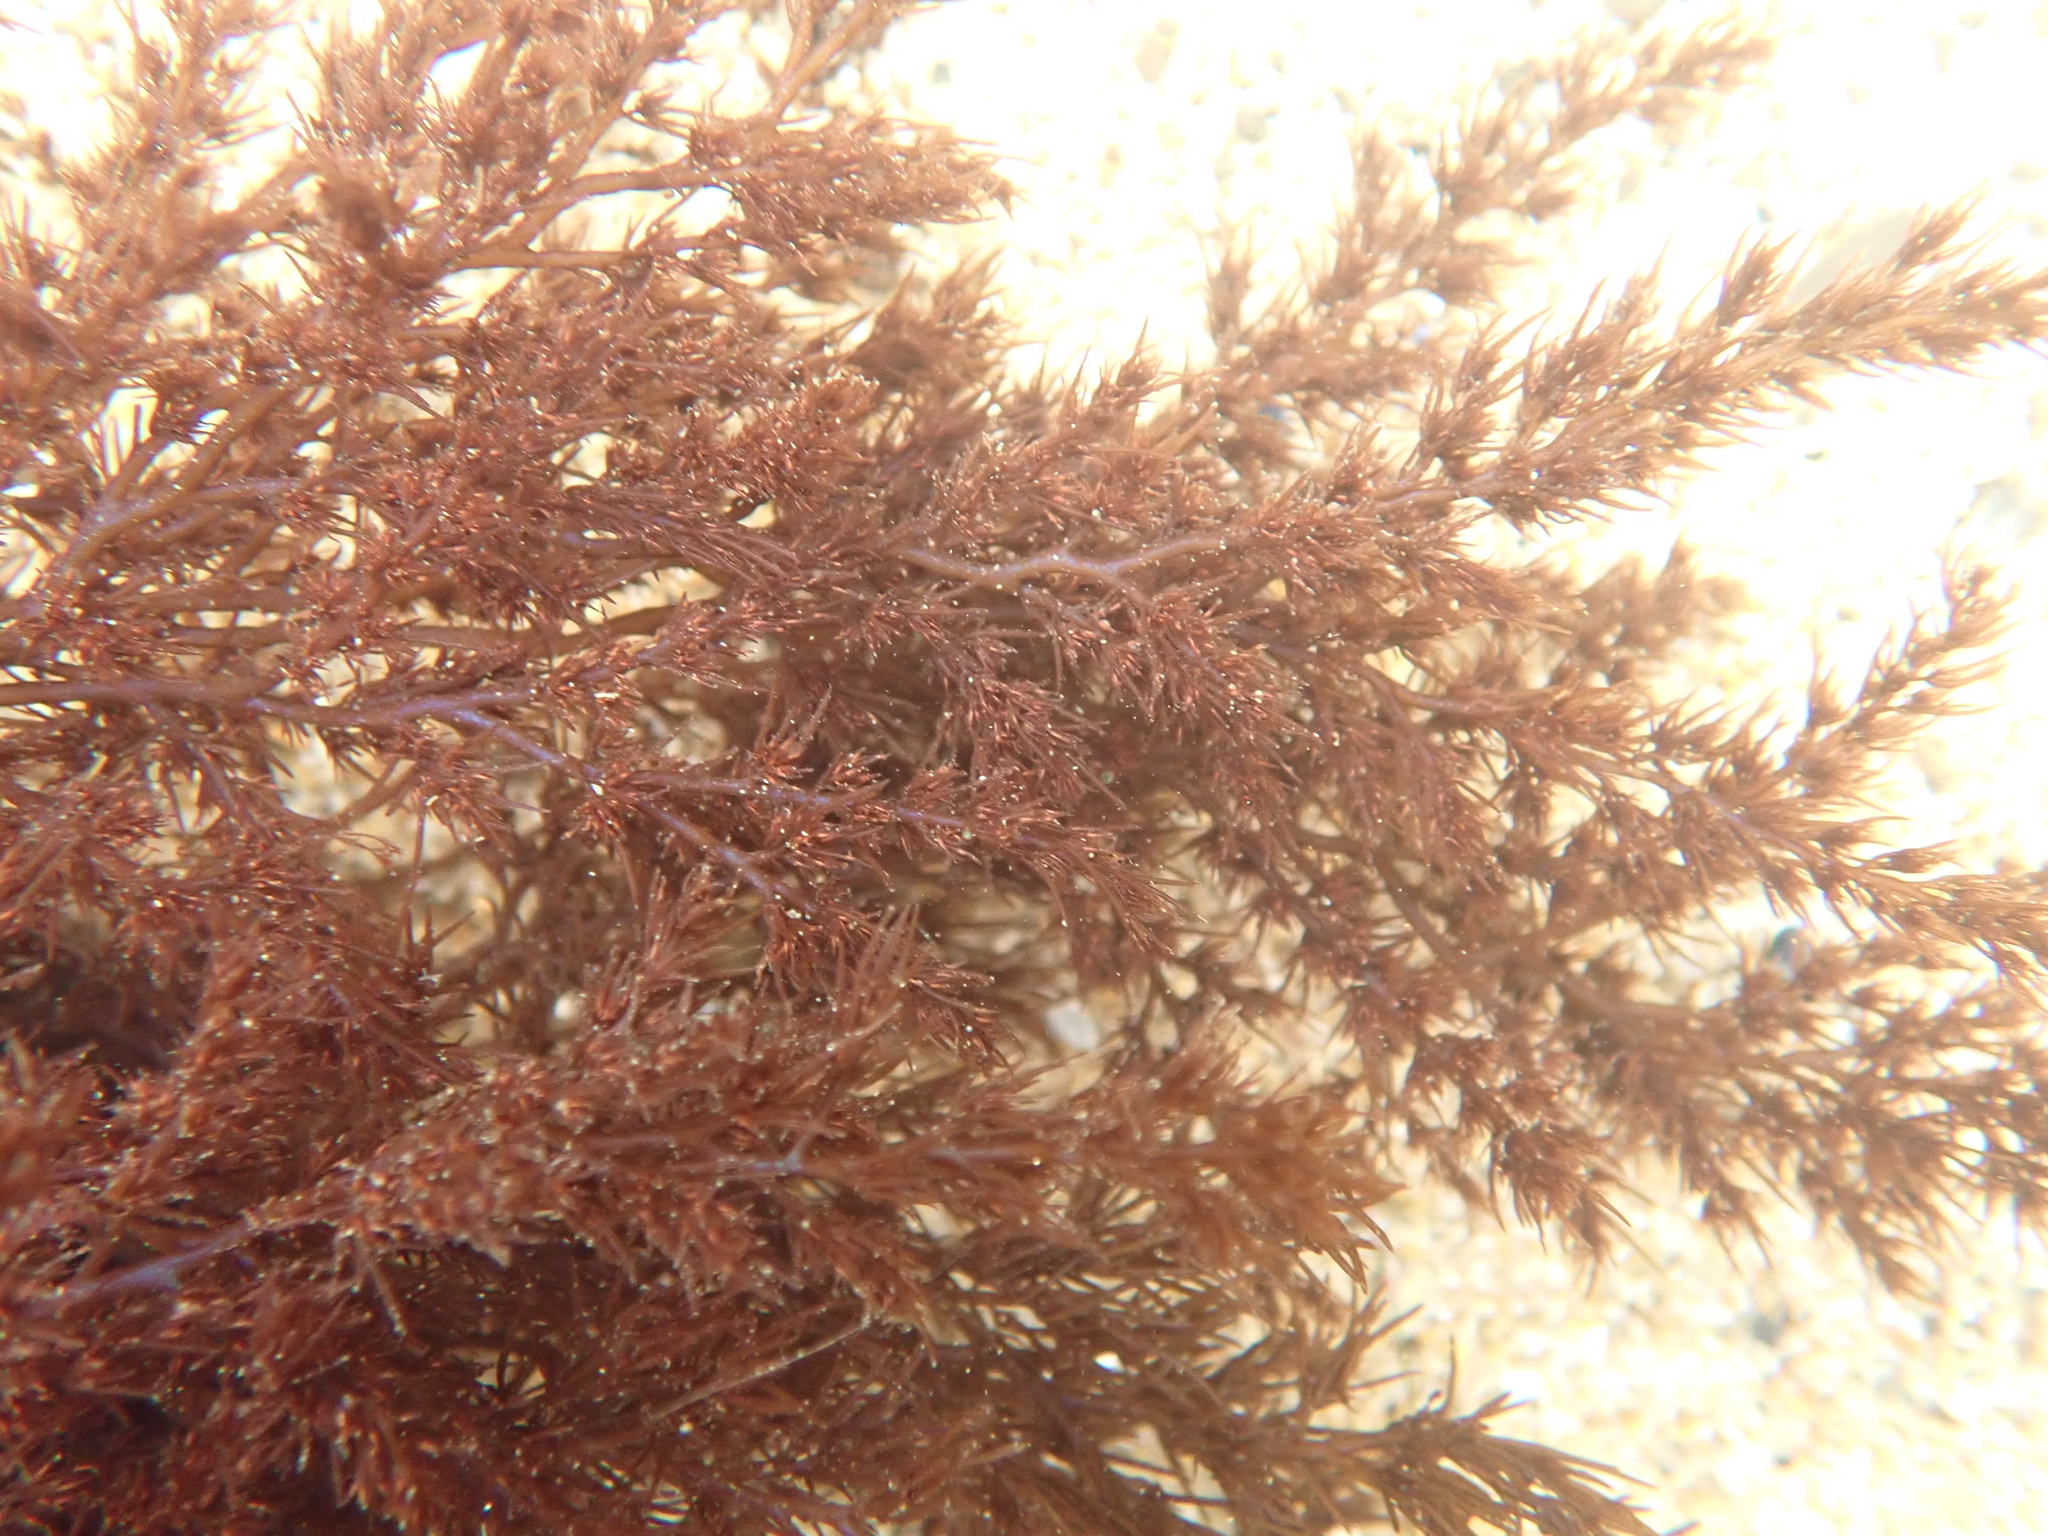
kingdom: Plantae
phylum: Rhodophyta
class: Florideophyceae
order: Ceramiales
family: Rhodomelaceae
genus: Odonthalia
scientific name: Odonthalia floccosa
